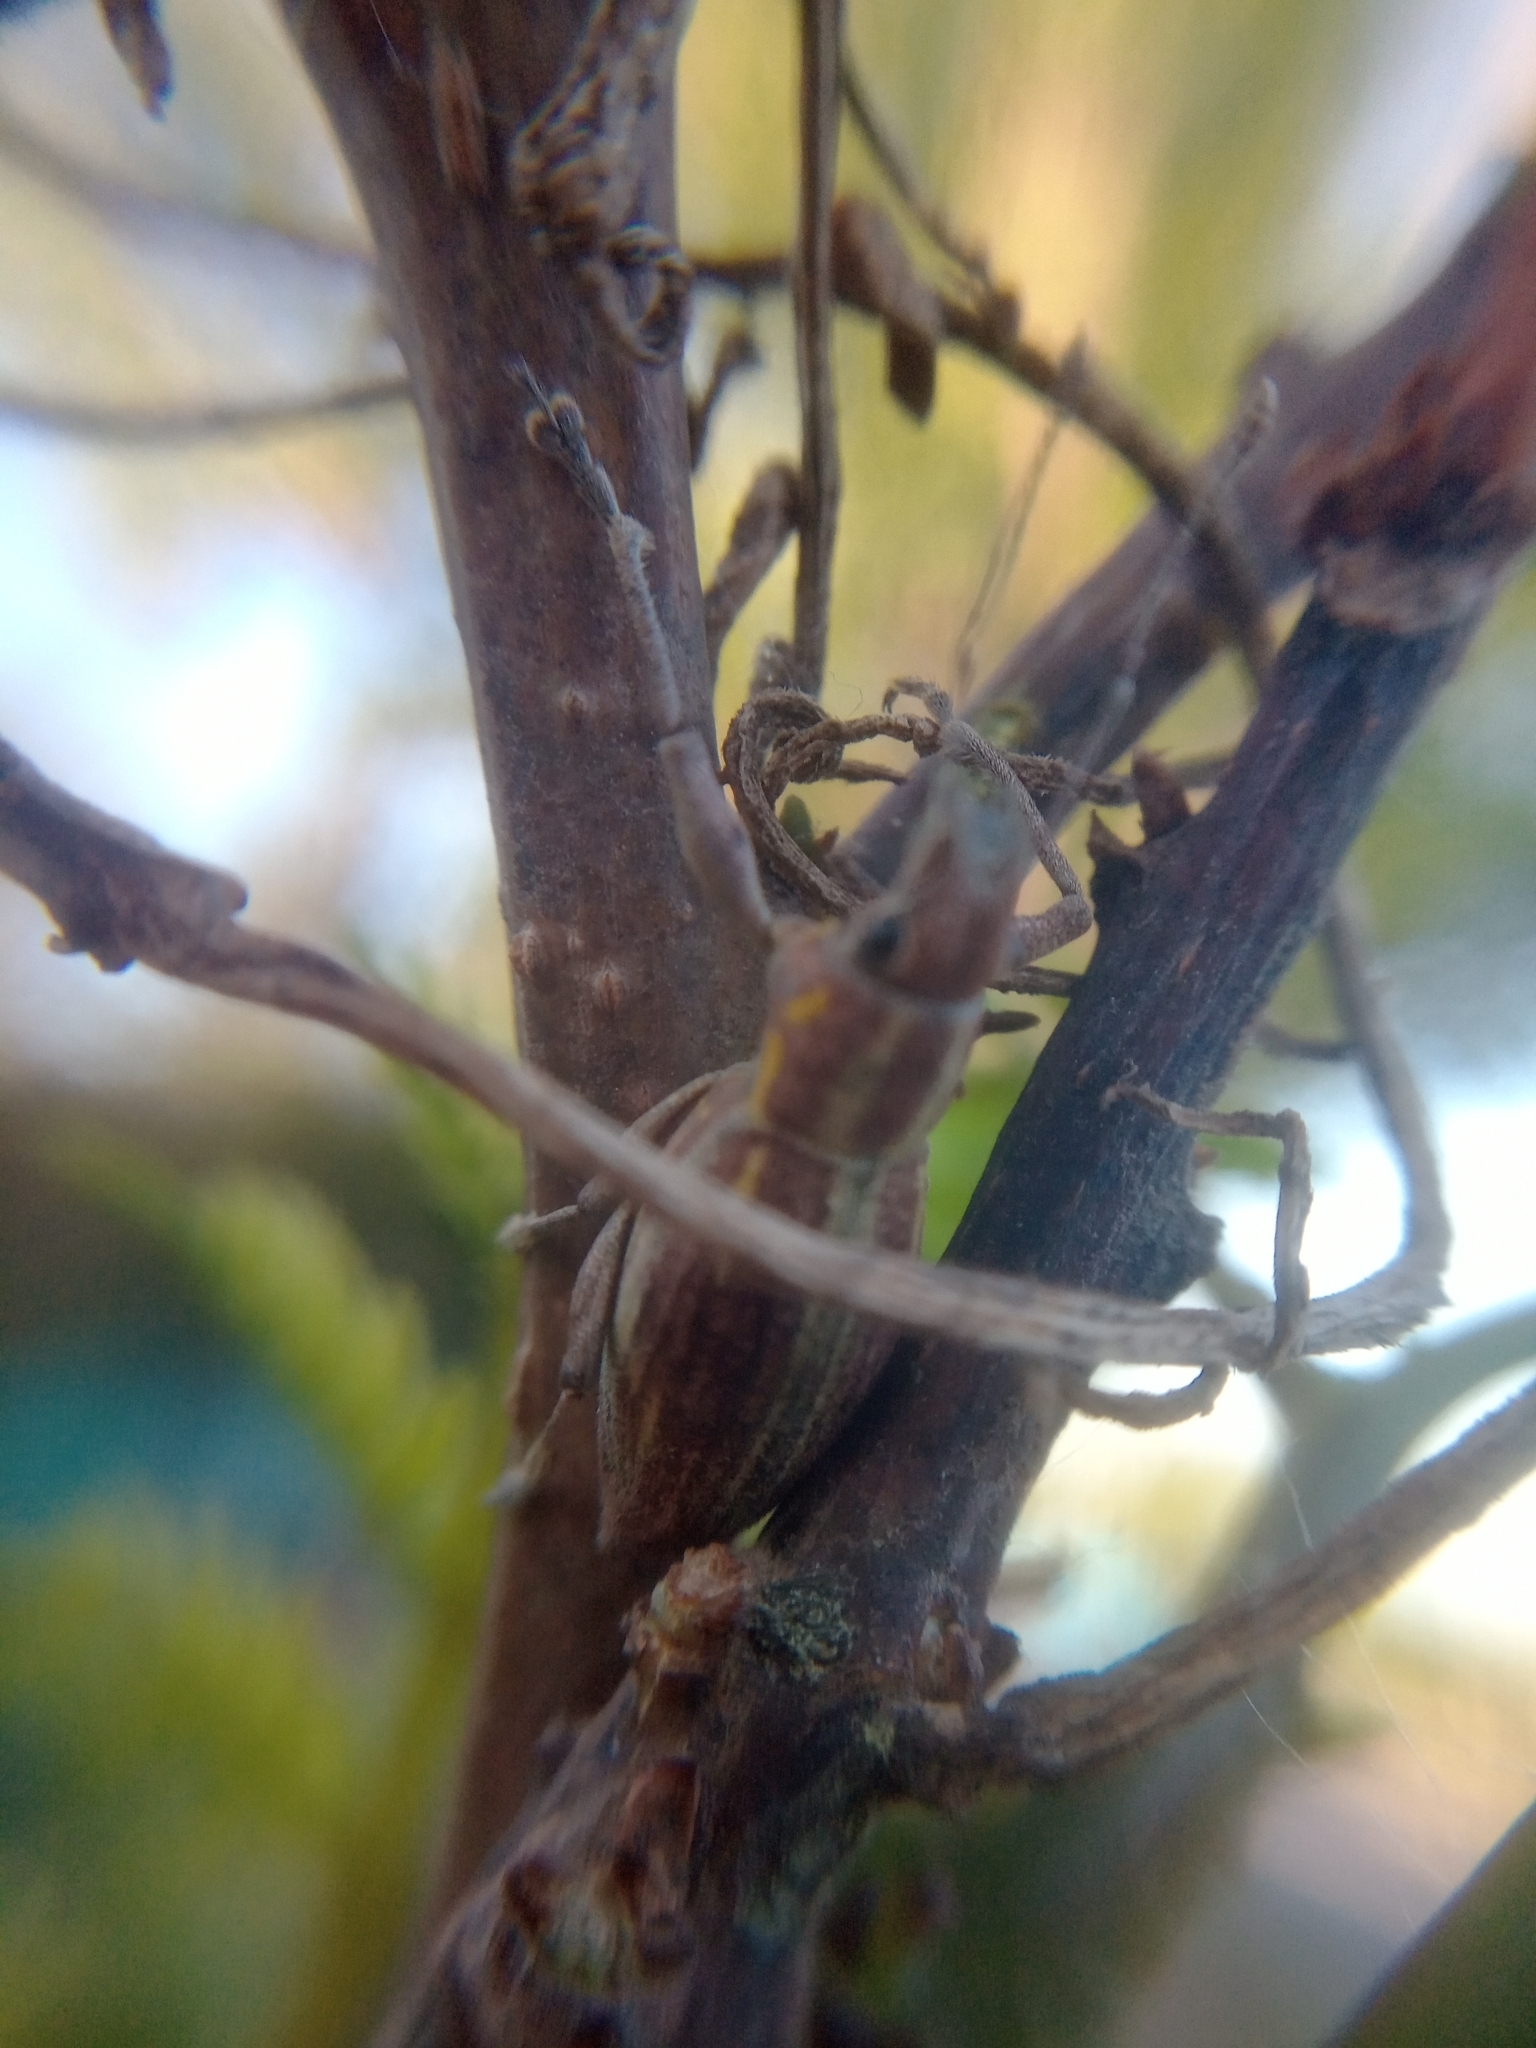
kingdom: Animalia
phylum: Arthropoda
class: Insecta
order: Coleoptera
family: Curculionidae
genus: Naupactus
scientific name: Naupactus xanthographus
